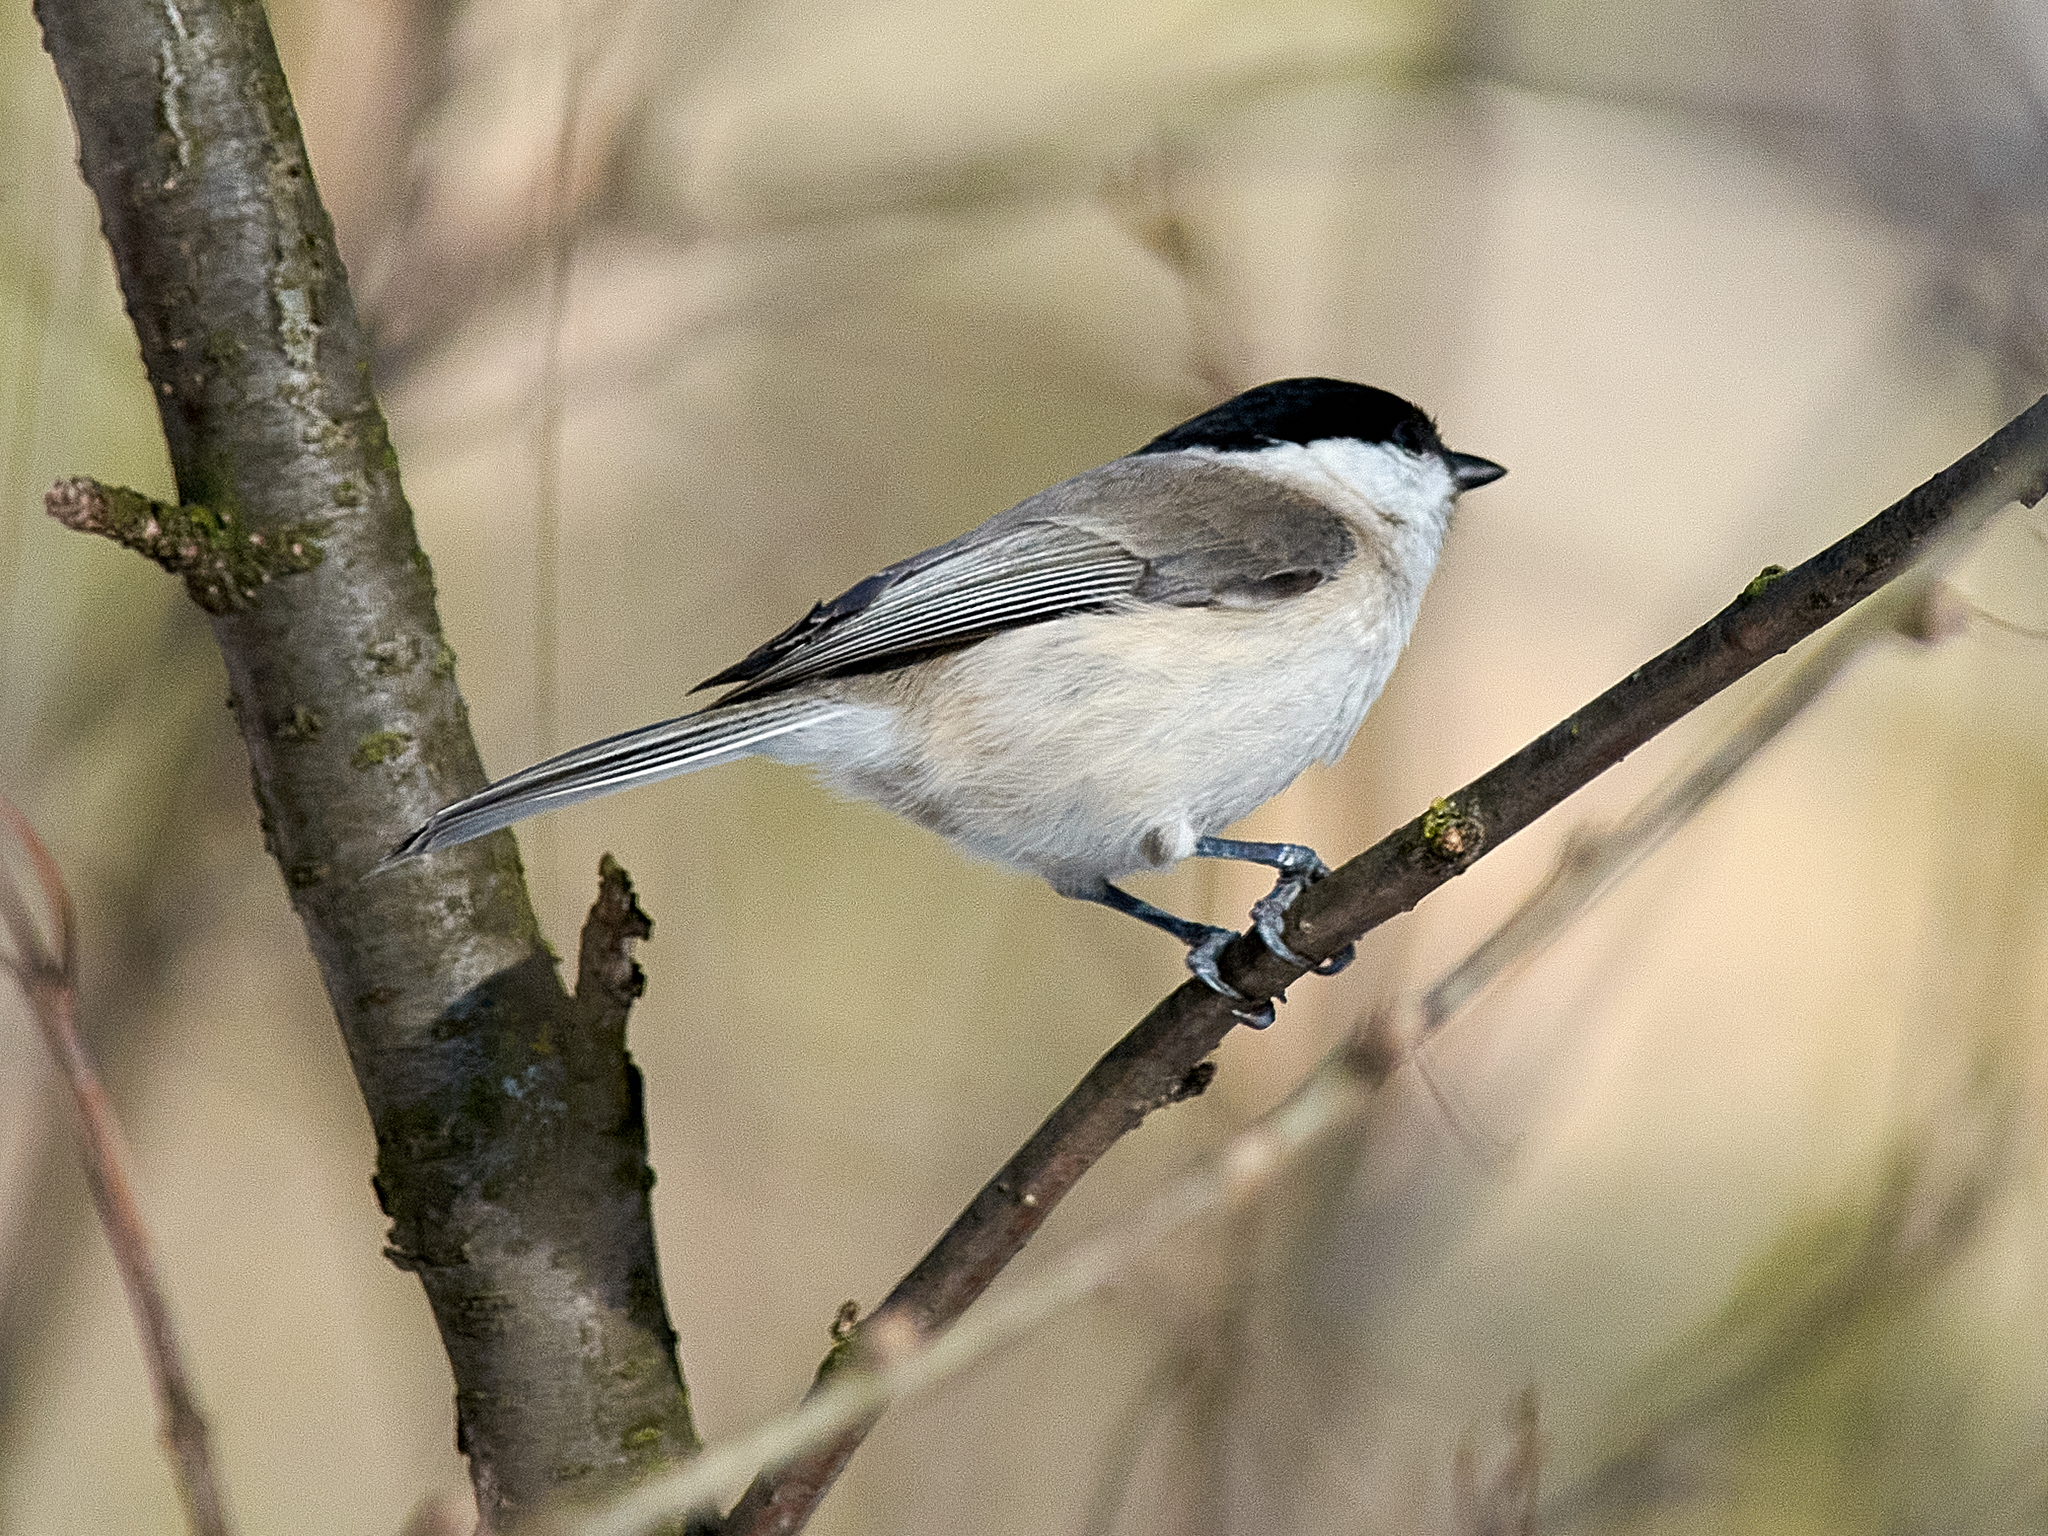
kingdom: Animalia
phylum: Chordata
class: Aves
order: Passeriformes
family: Paridae
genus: Poecile
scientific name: Poecile palustris
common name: Marsh tit
